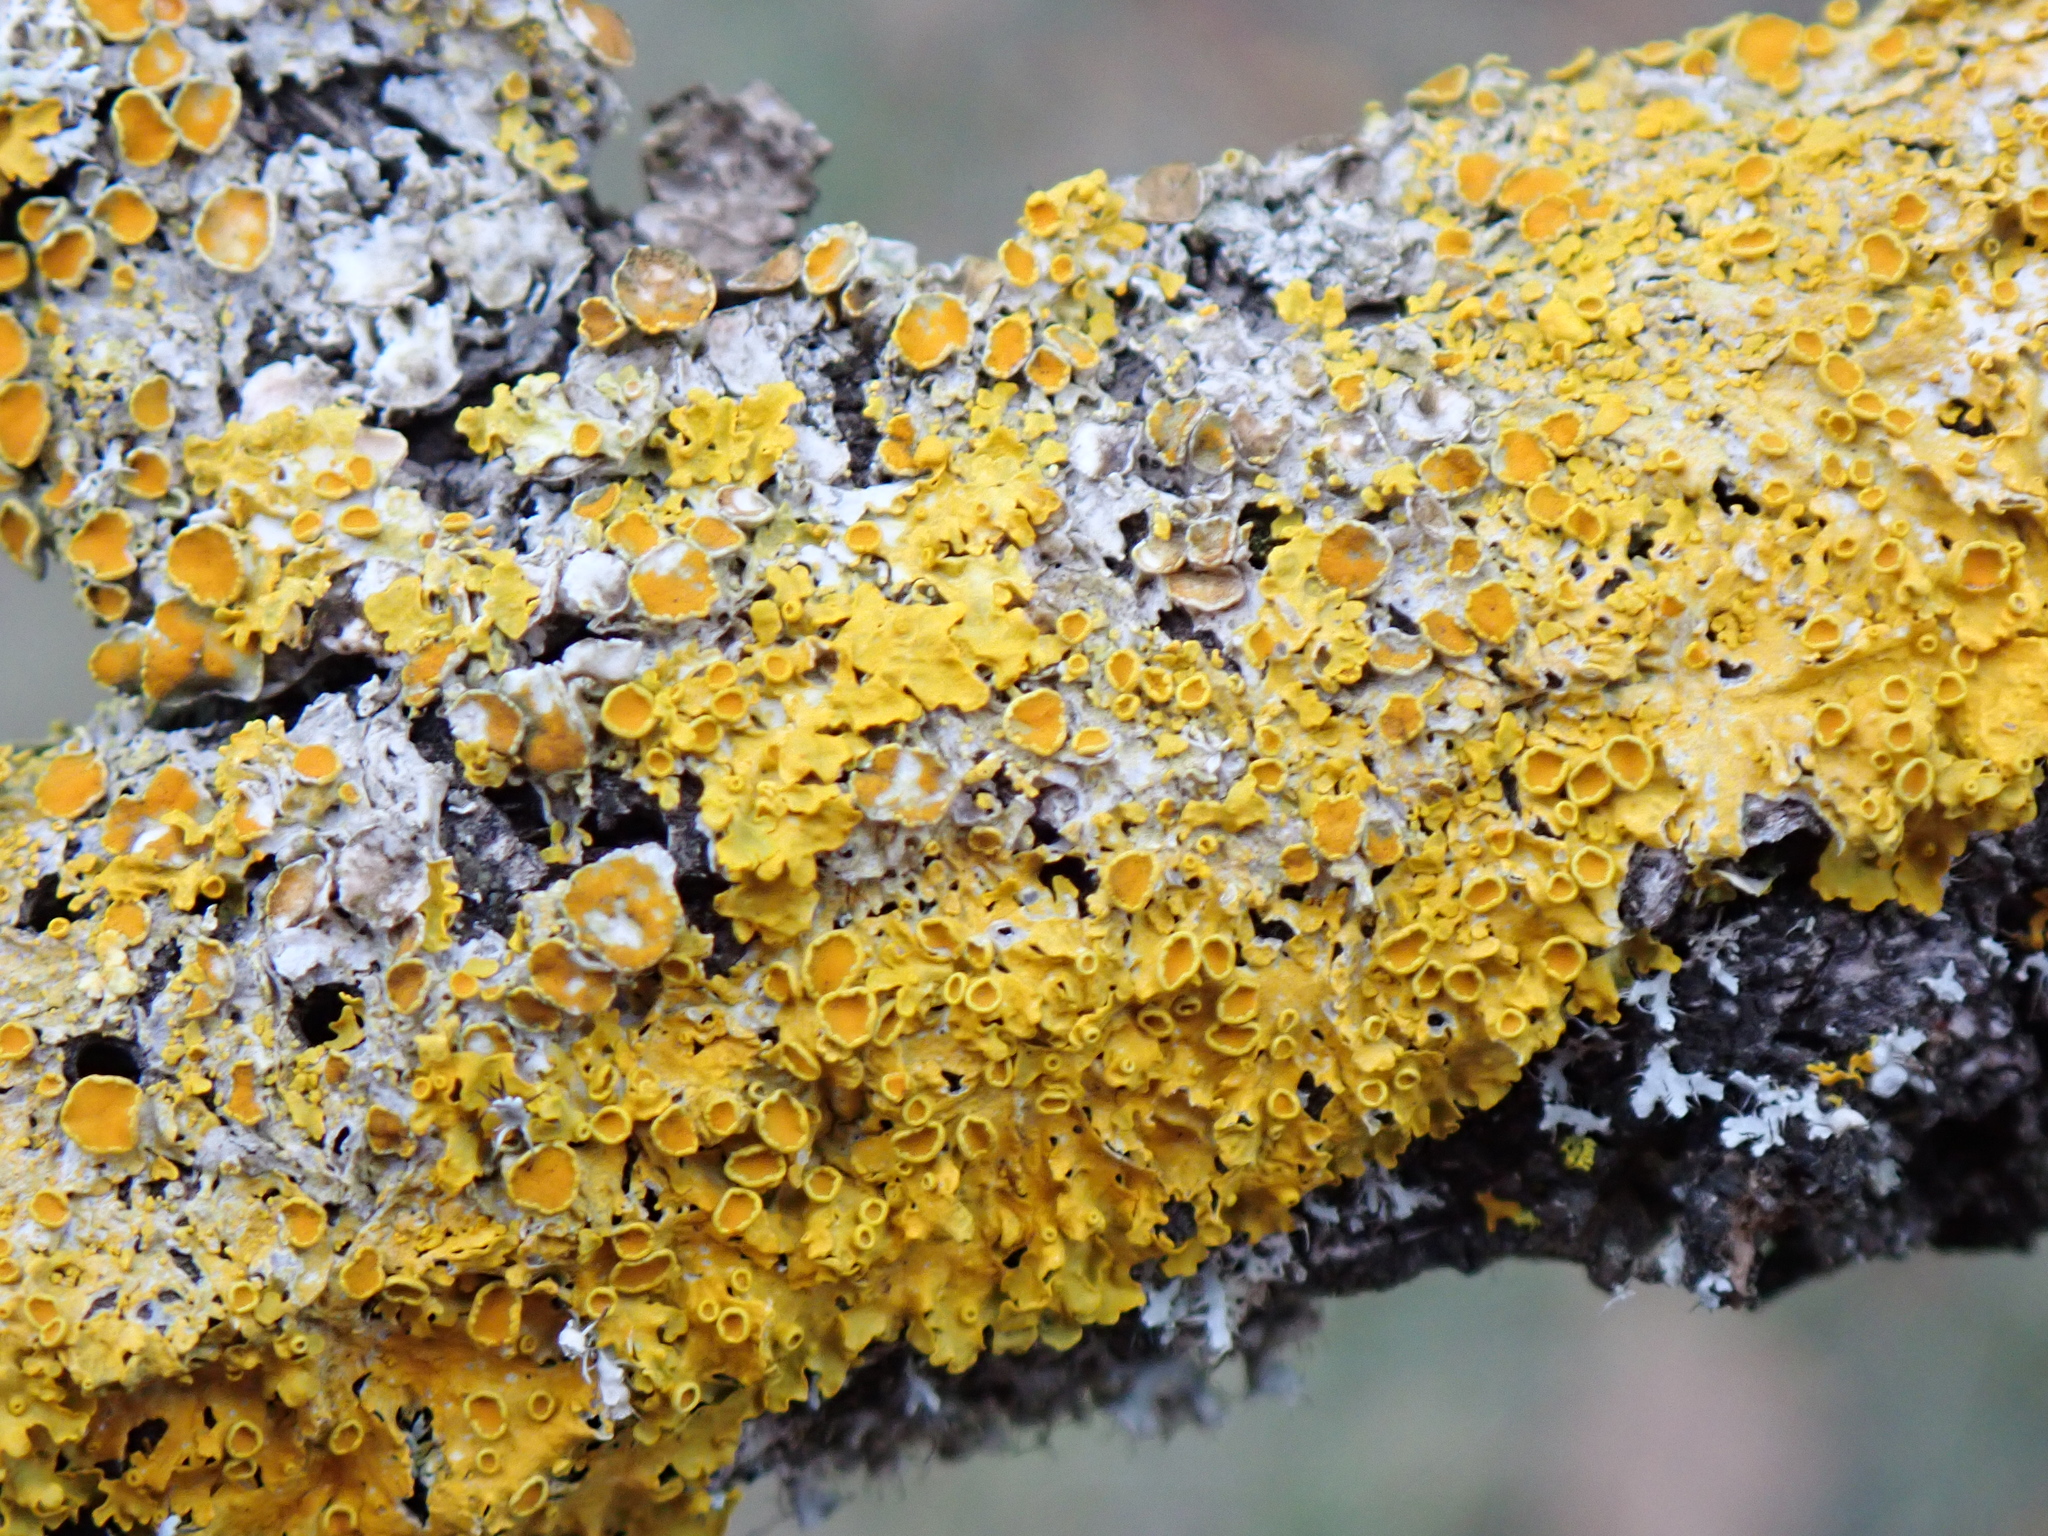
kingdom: Fungi
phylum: Ascomycota
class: Lecanoromycetes
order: Teloschistales
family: Teloschistaceae
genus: Xanthoria
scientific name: Xanthoria parietina
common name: Common orange lichen
